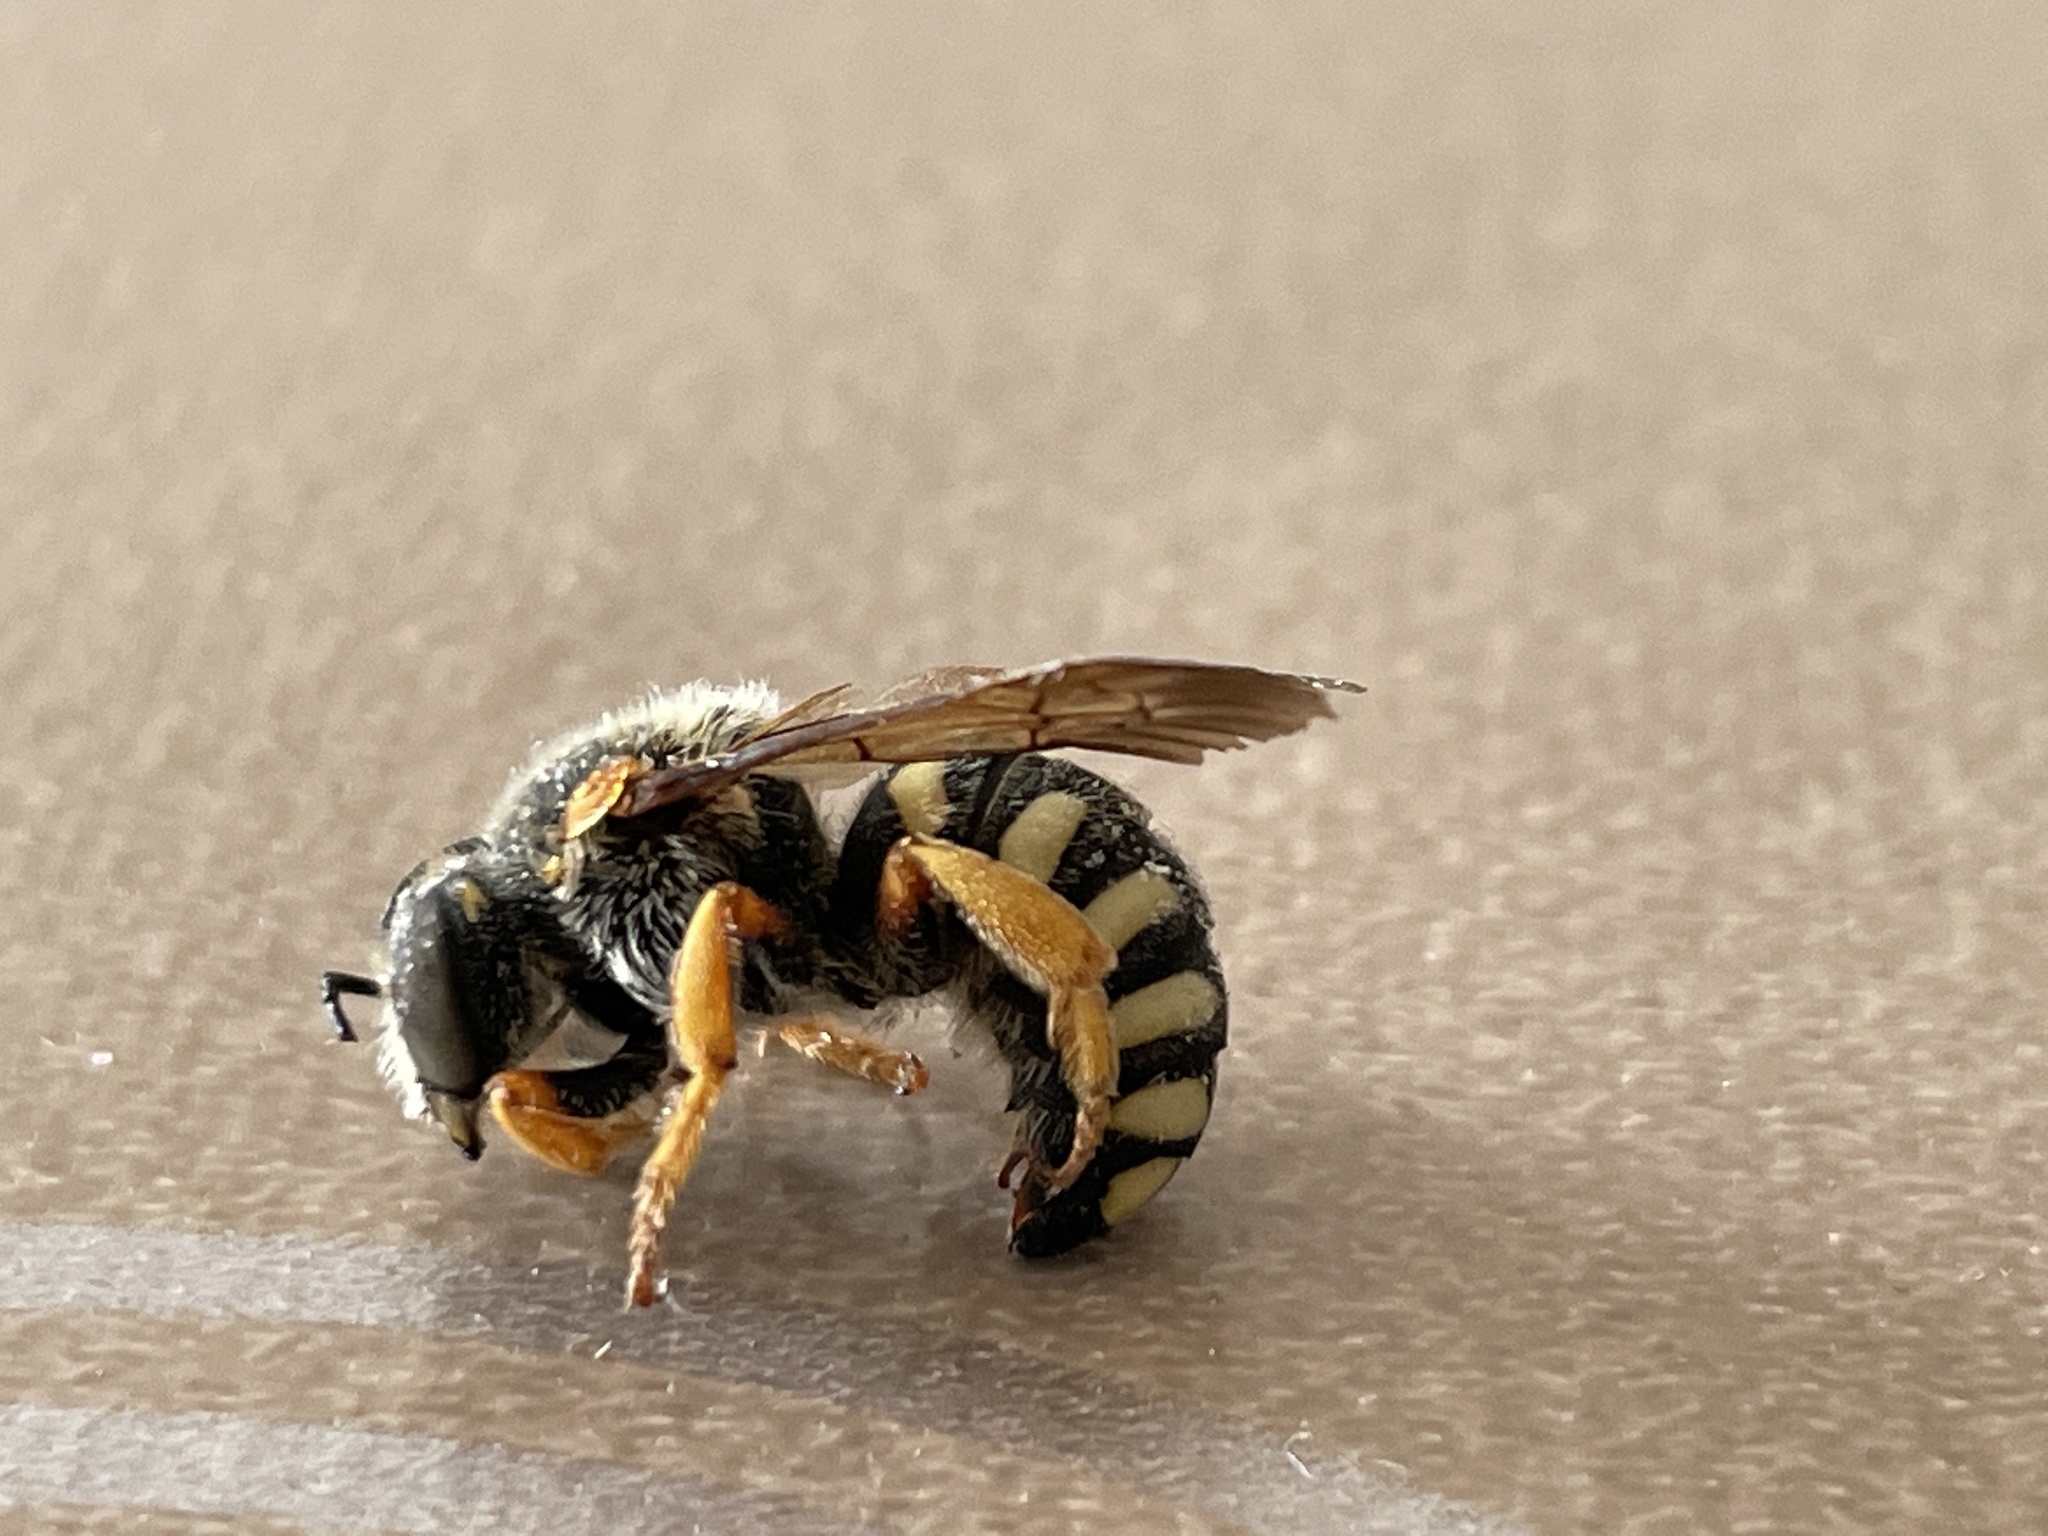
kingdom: Animalia
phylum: Arthropoda
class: Insecta
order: Hymenoptera
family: Megachilidae
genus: Rhodanthidium
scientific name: Rhodanthidium septemdentatum
